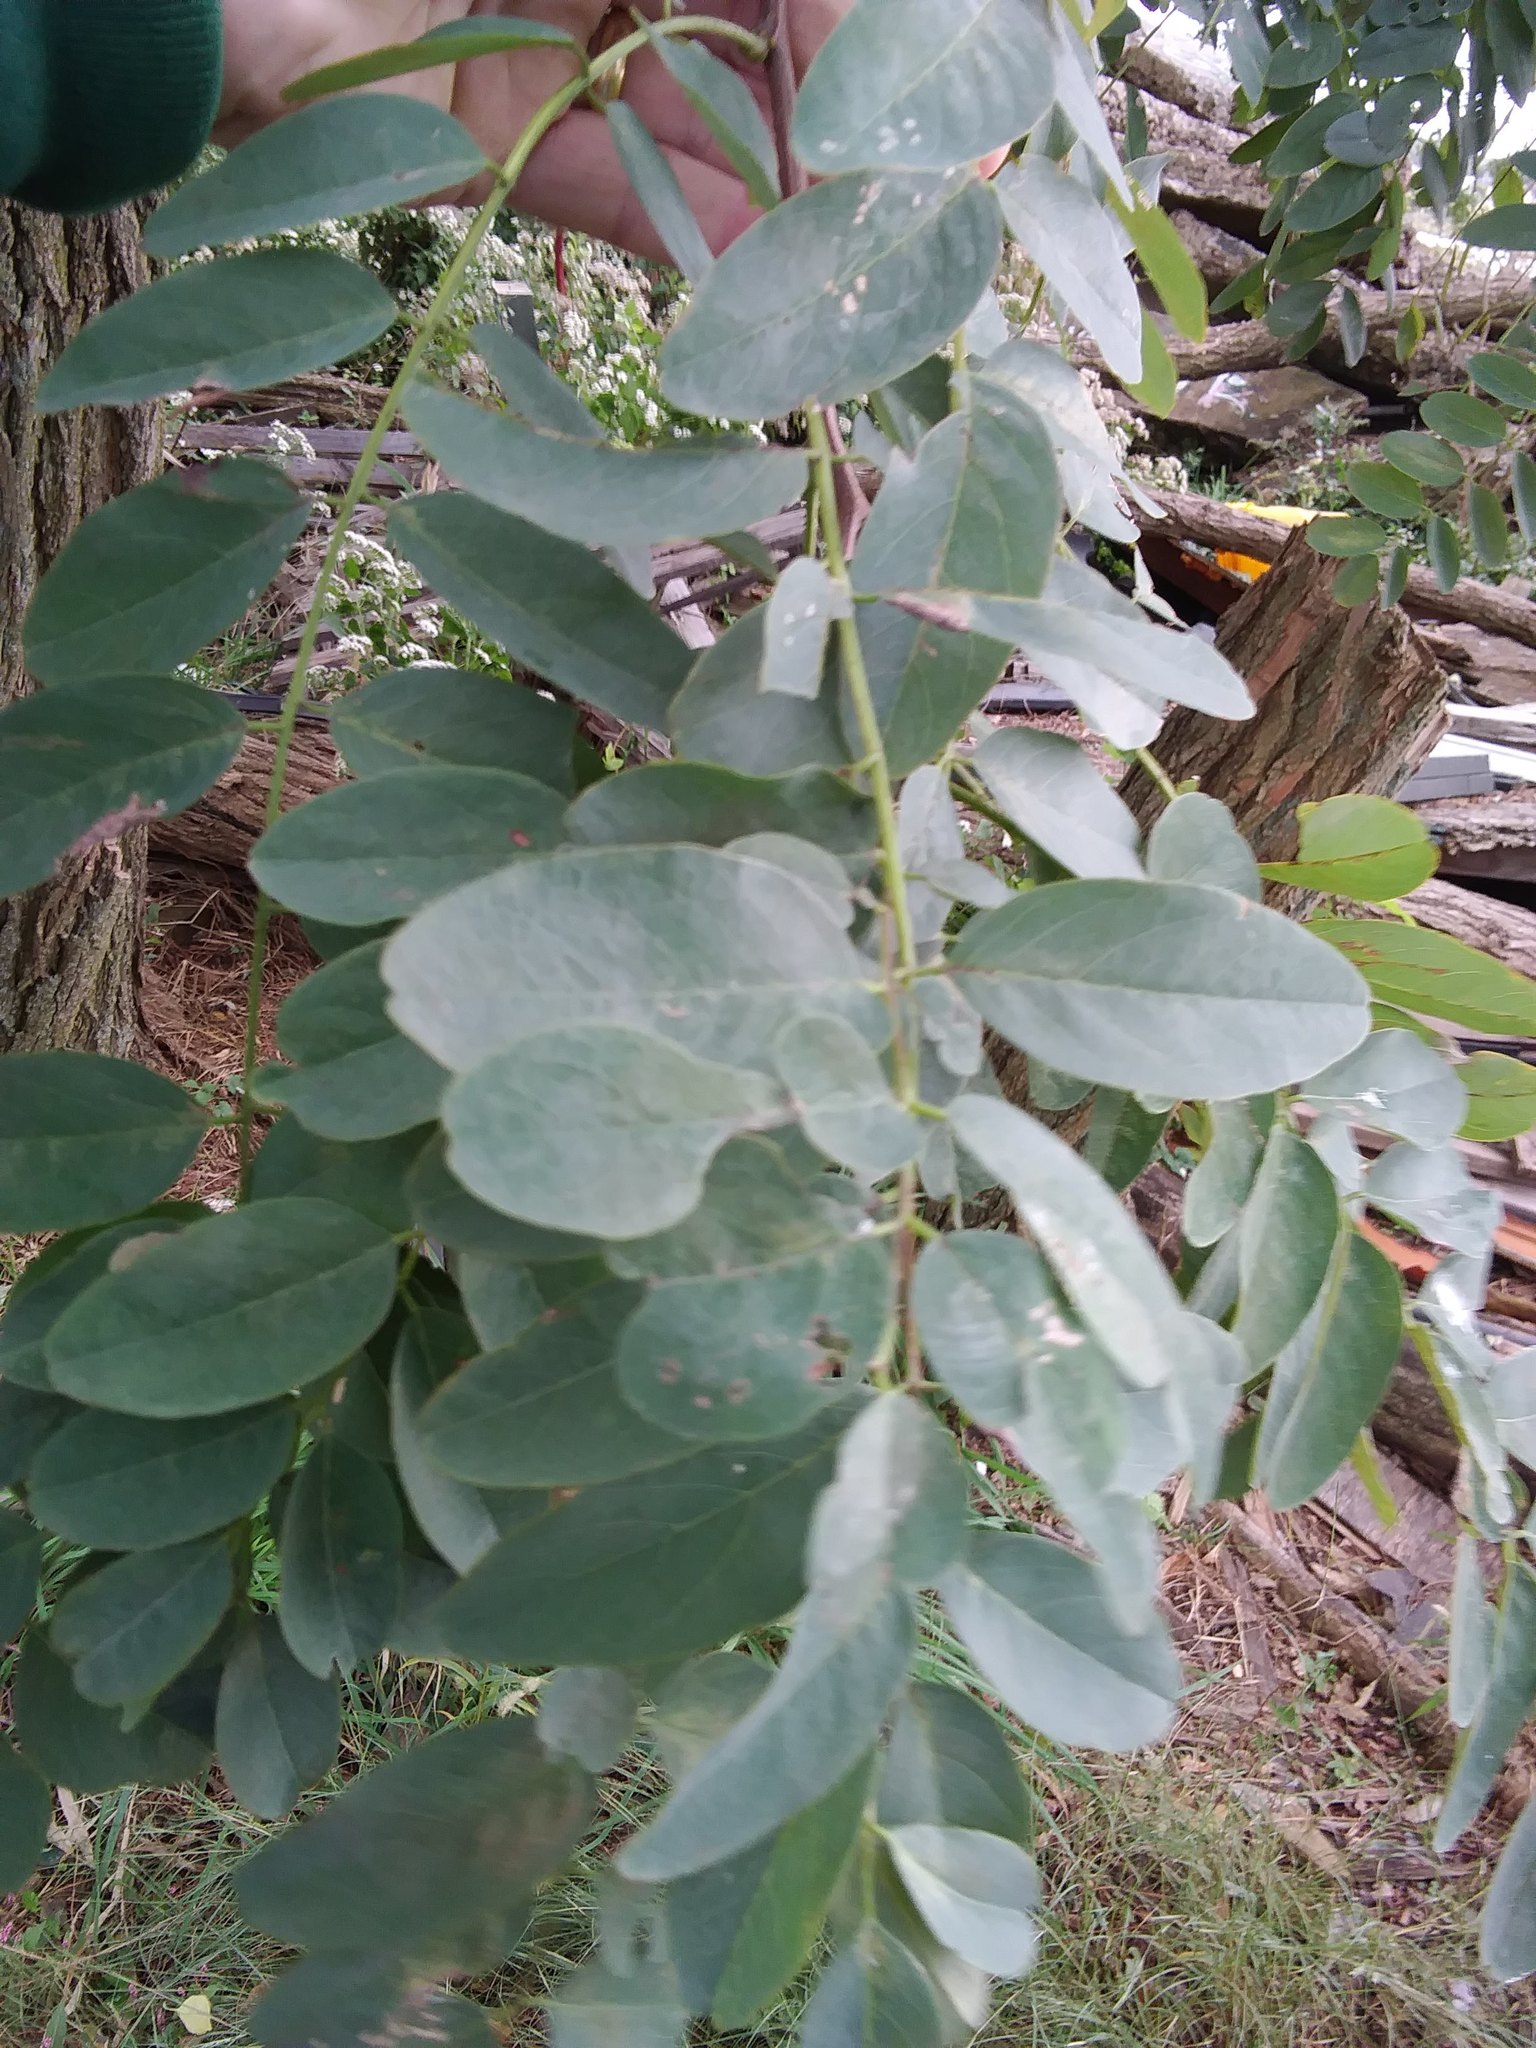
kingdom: Plantae
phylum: Tracheophyta
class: Magnoliopsida
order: Fabales
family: Fabaceae
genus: Robinia
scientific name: Robinia pseudoacacia
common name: Black locust
